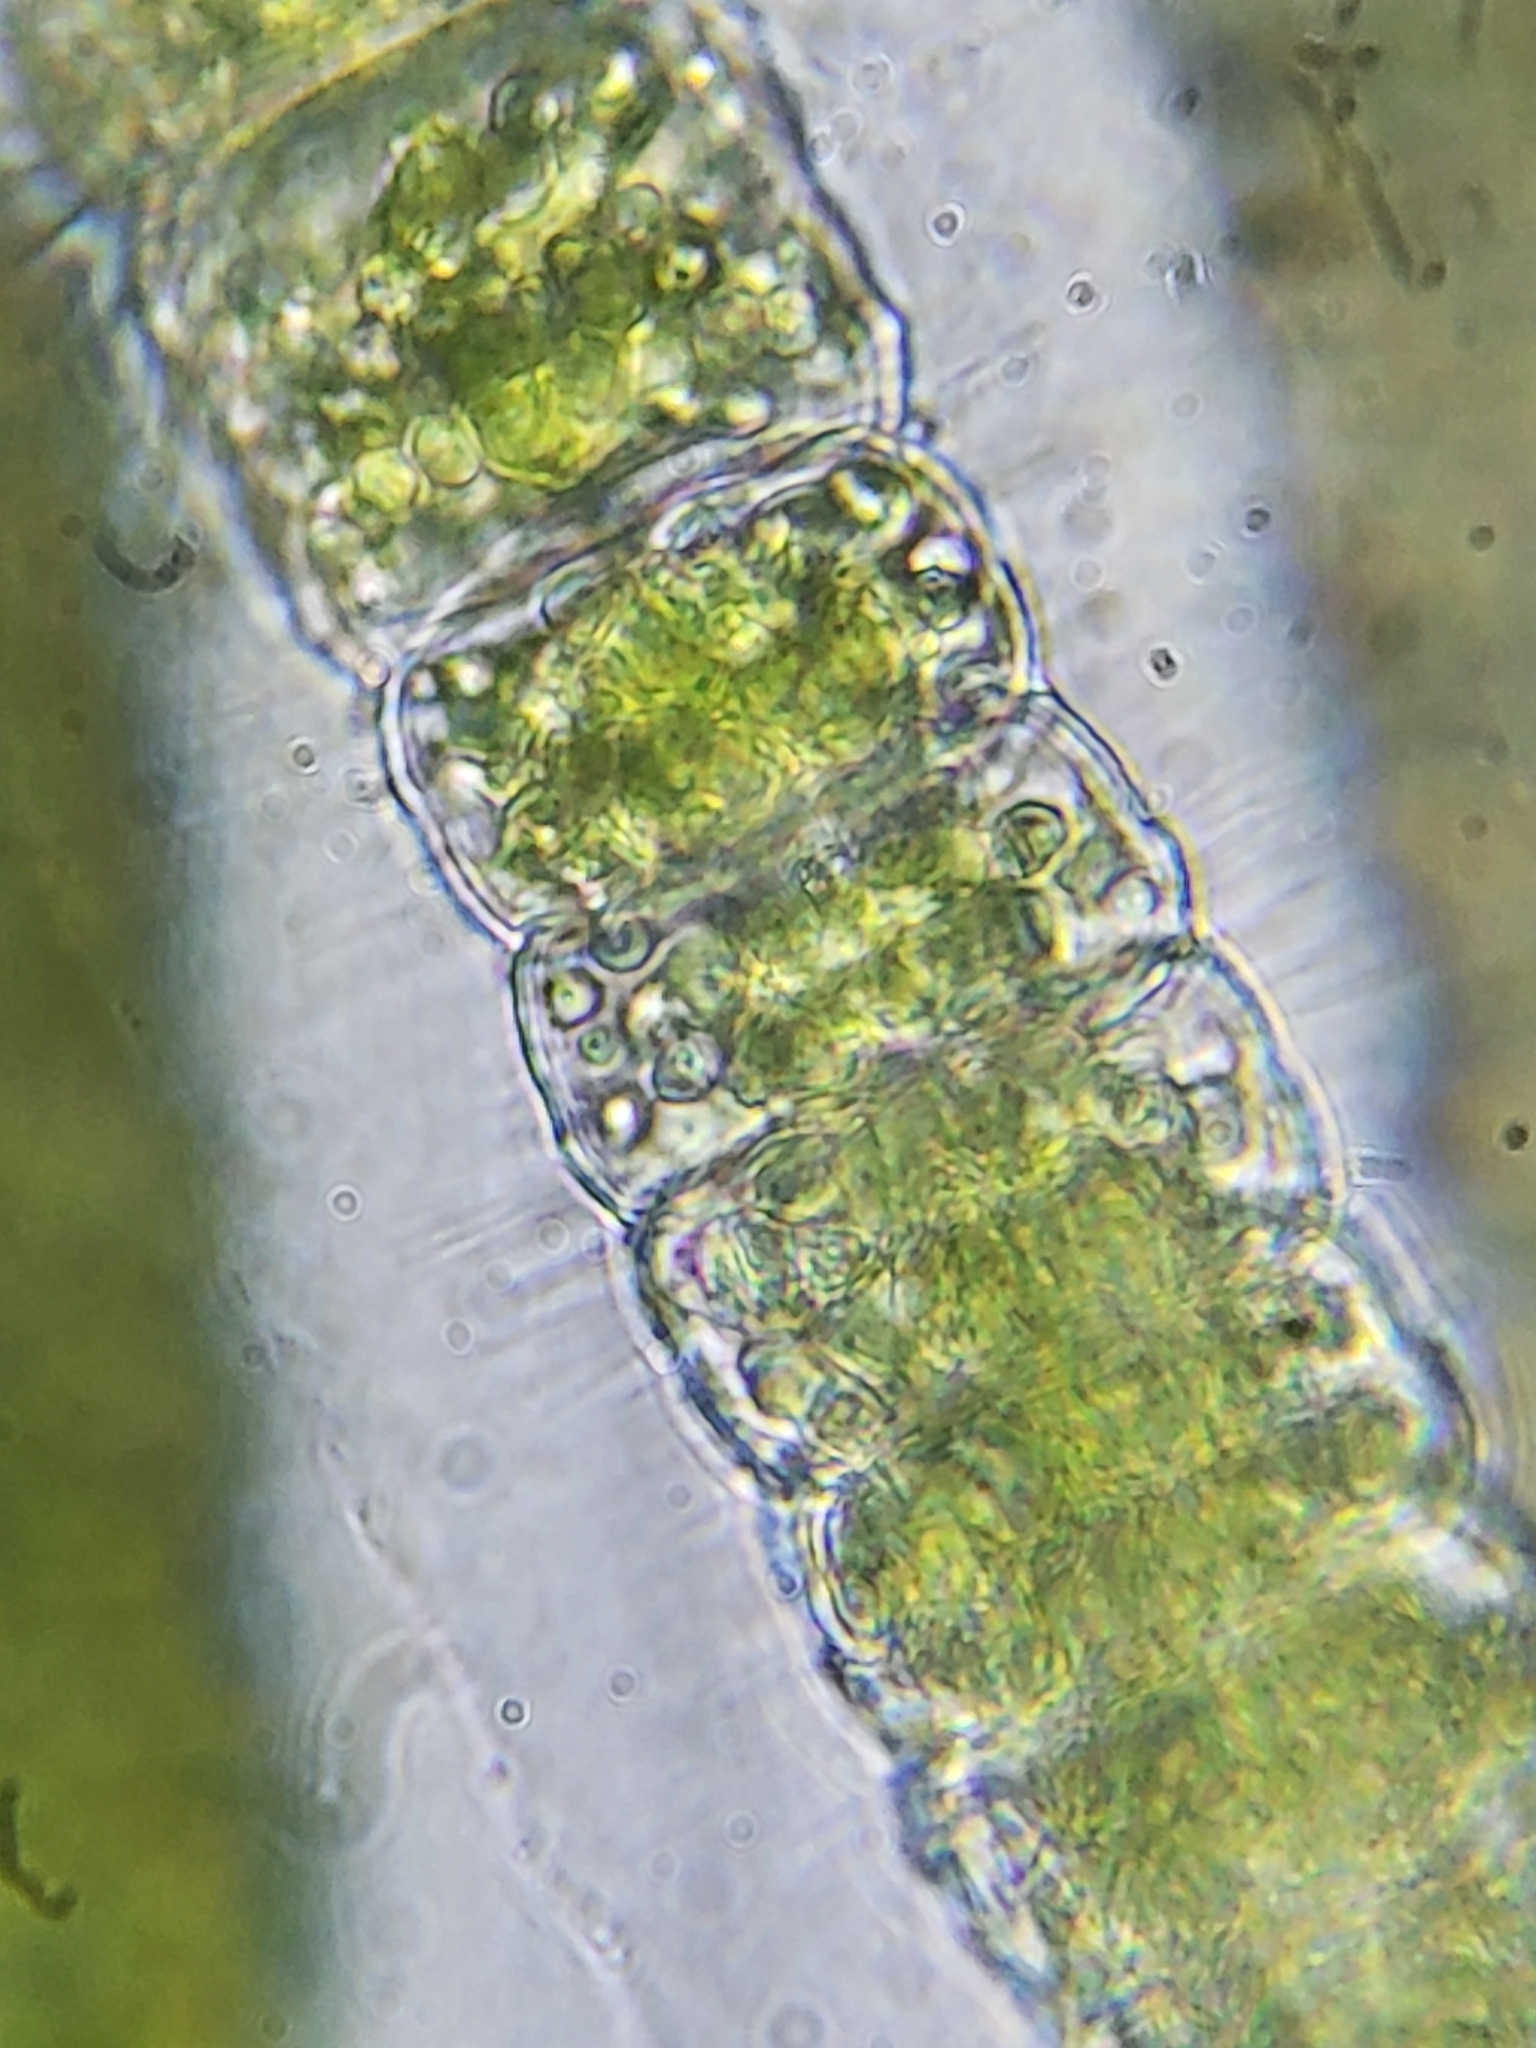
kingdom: Plantae
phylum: Charophyta
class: Conjugatophyceae
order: Desmidiales
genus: Hyalotheca
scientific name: Hyalotheca dissiliens
